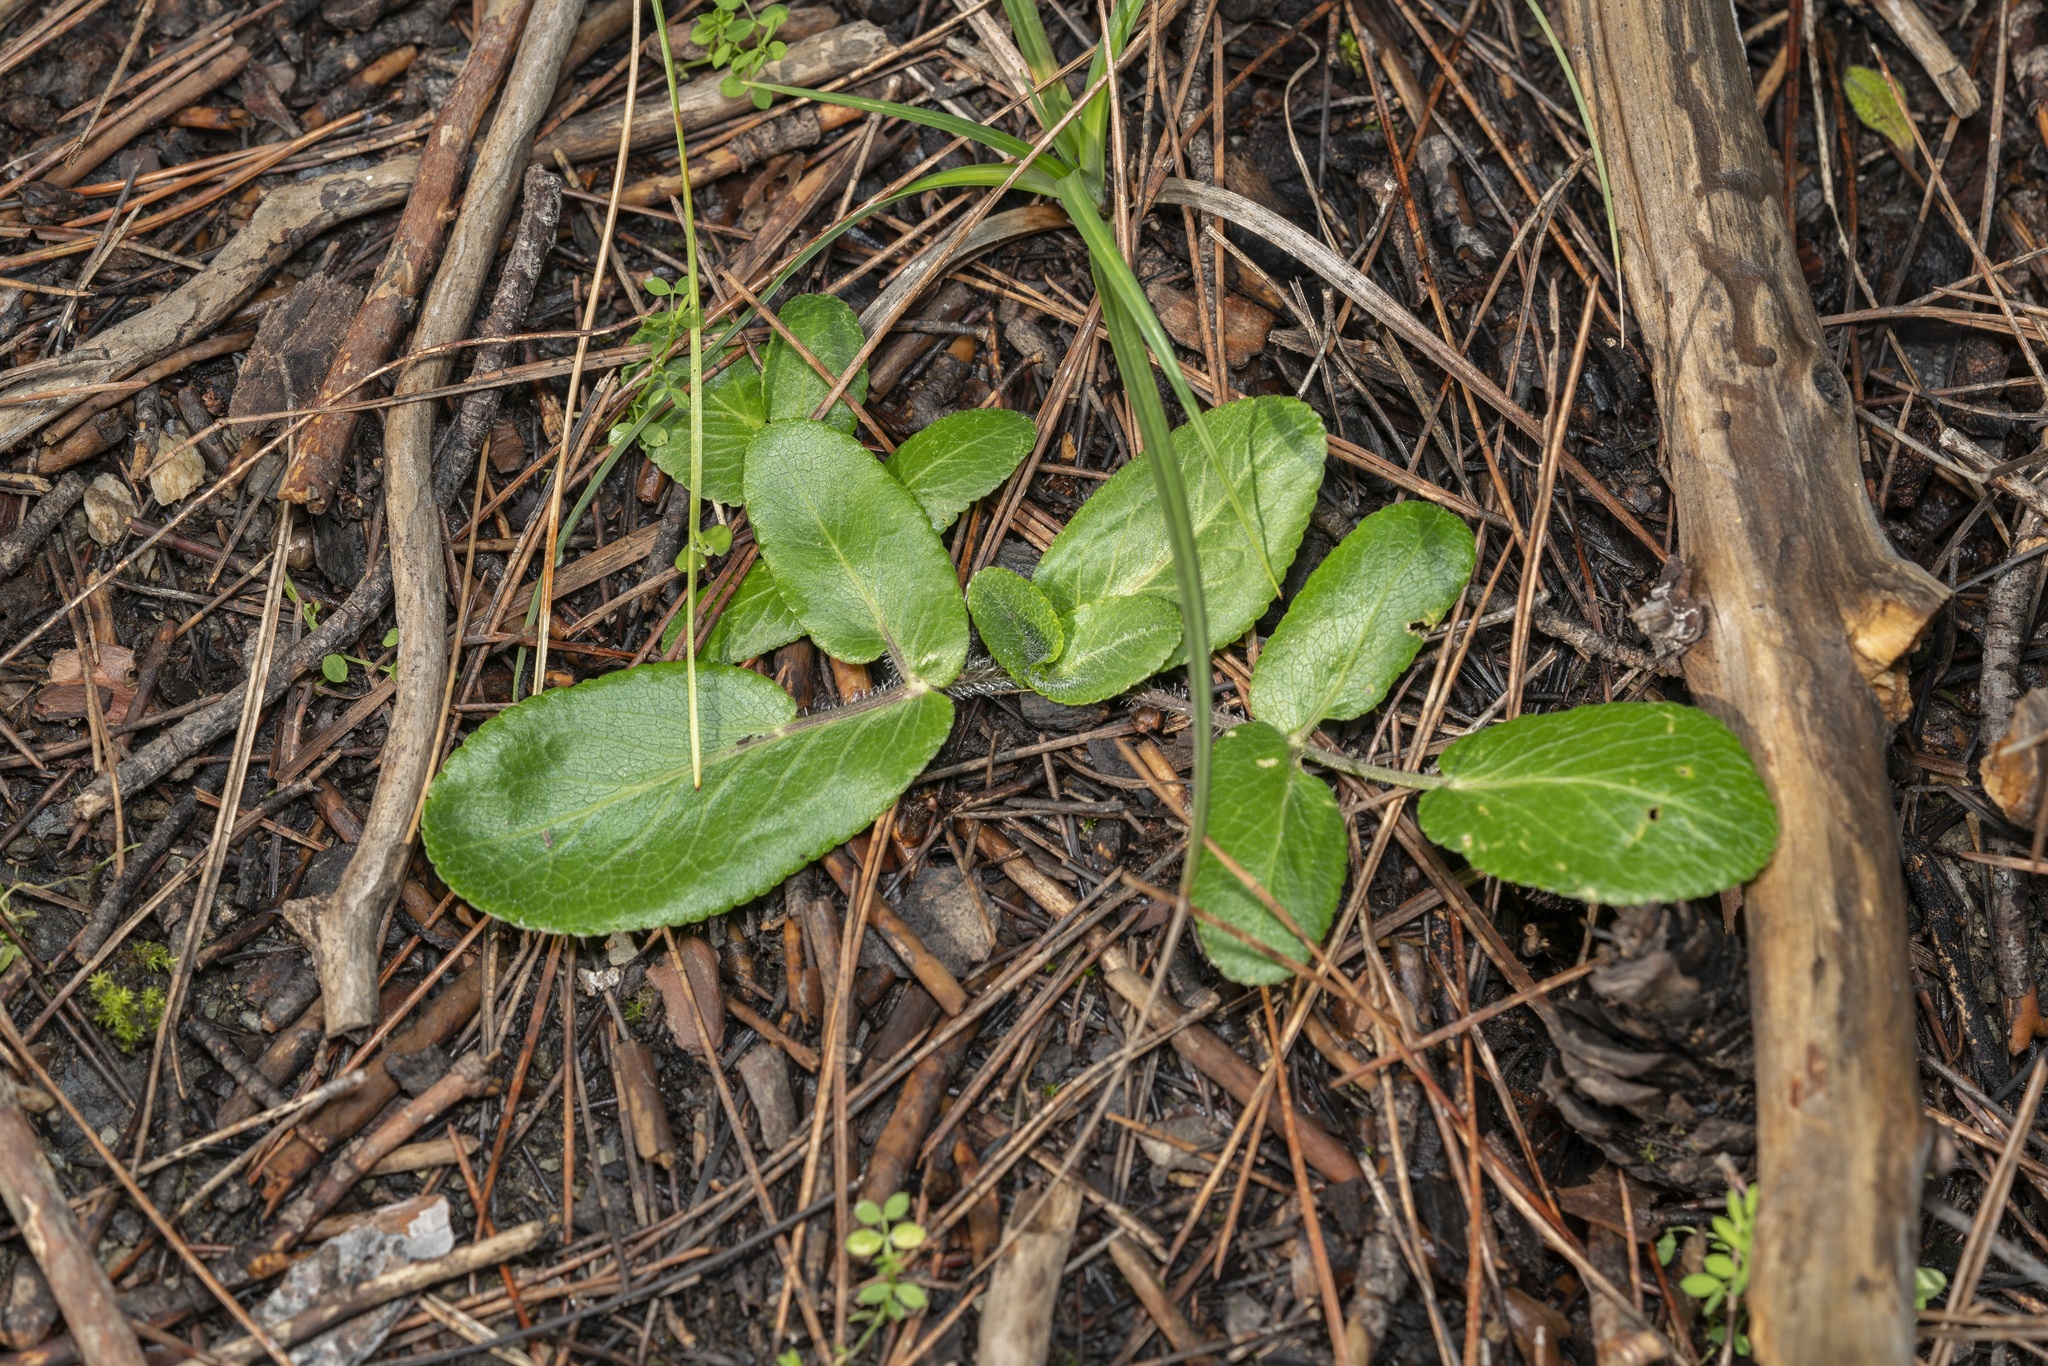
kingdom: Plantae
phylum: Tracheophyta
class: Magnoliopsida
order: Apiales
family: Apiaceae
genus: Opopanax
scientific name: Opopanax hispidus
